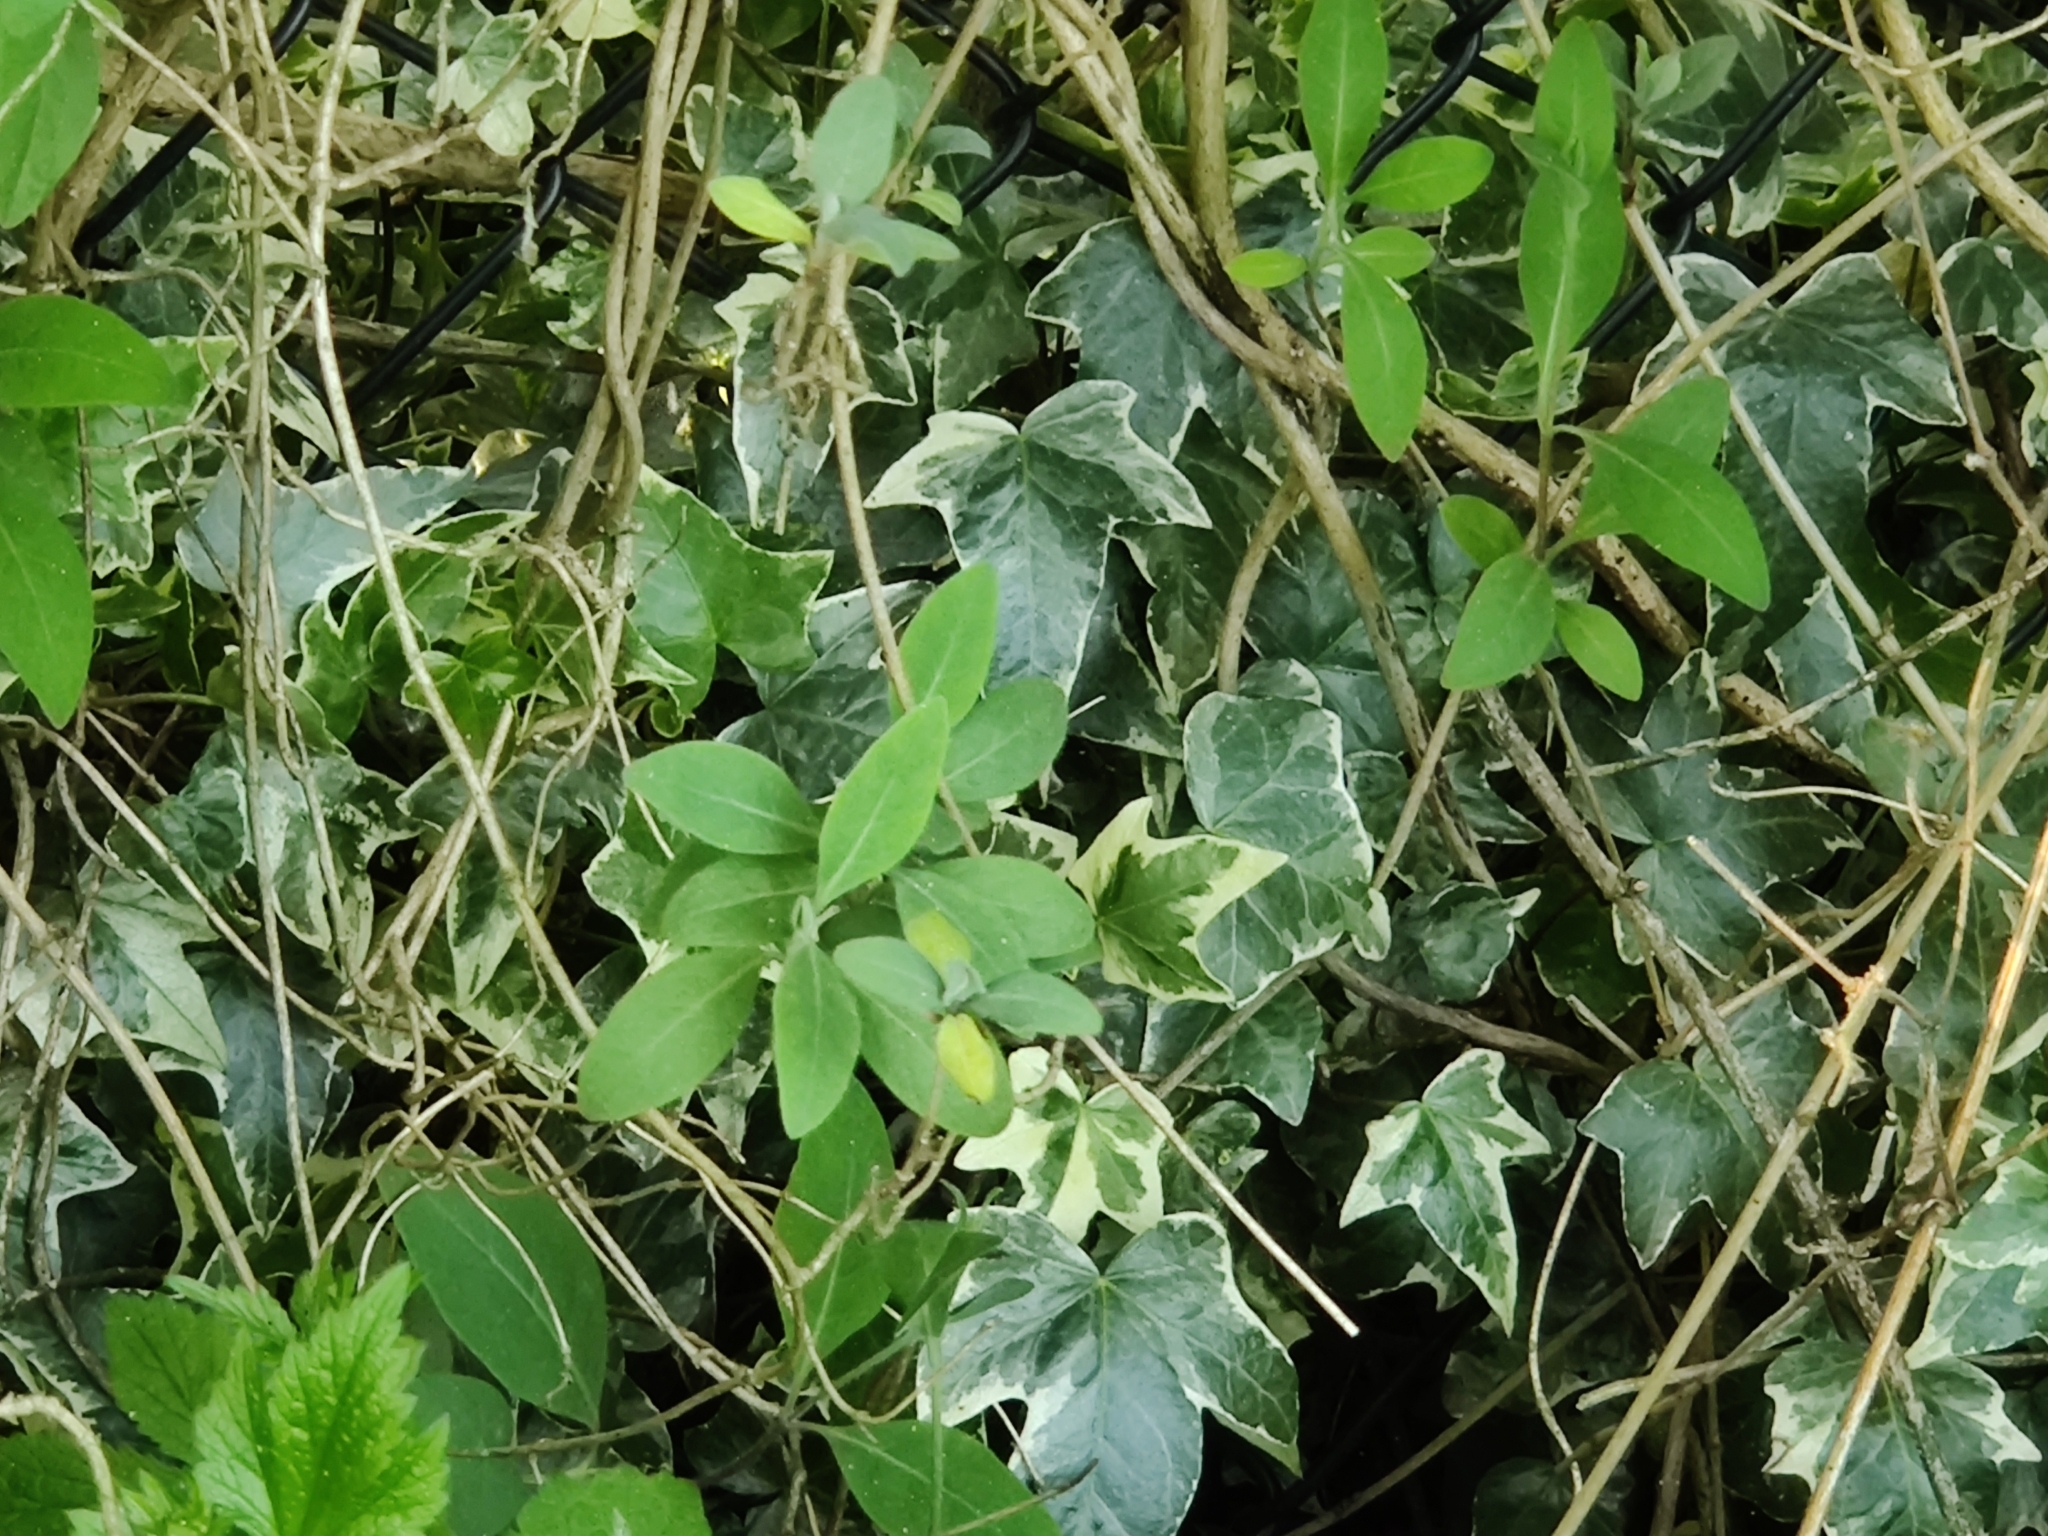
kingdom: Plantae
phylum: Tracheophyta
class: Magnoliopsida
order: Apiales
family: Araliaceae
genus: Hedera
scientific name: Hedera helix
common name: Ivy
